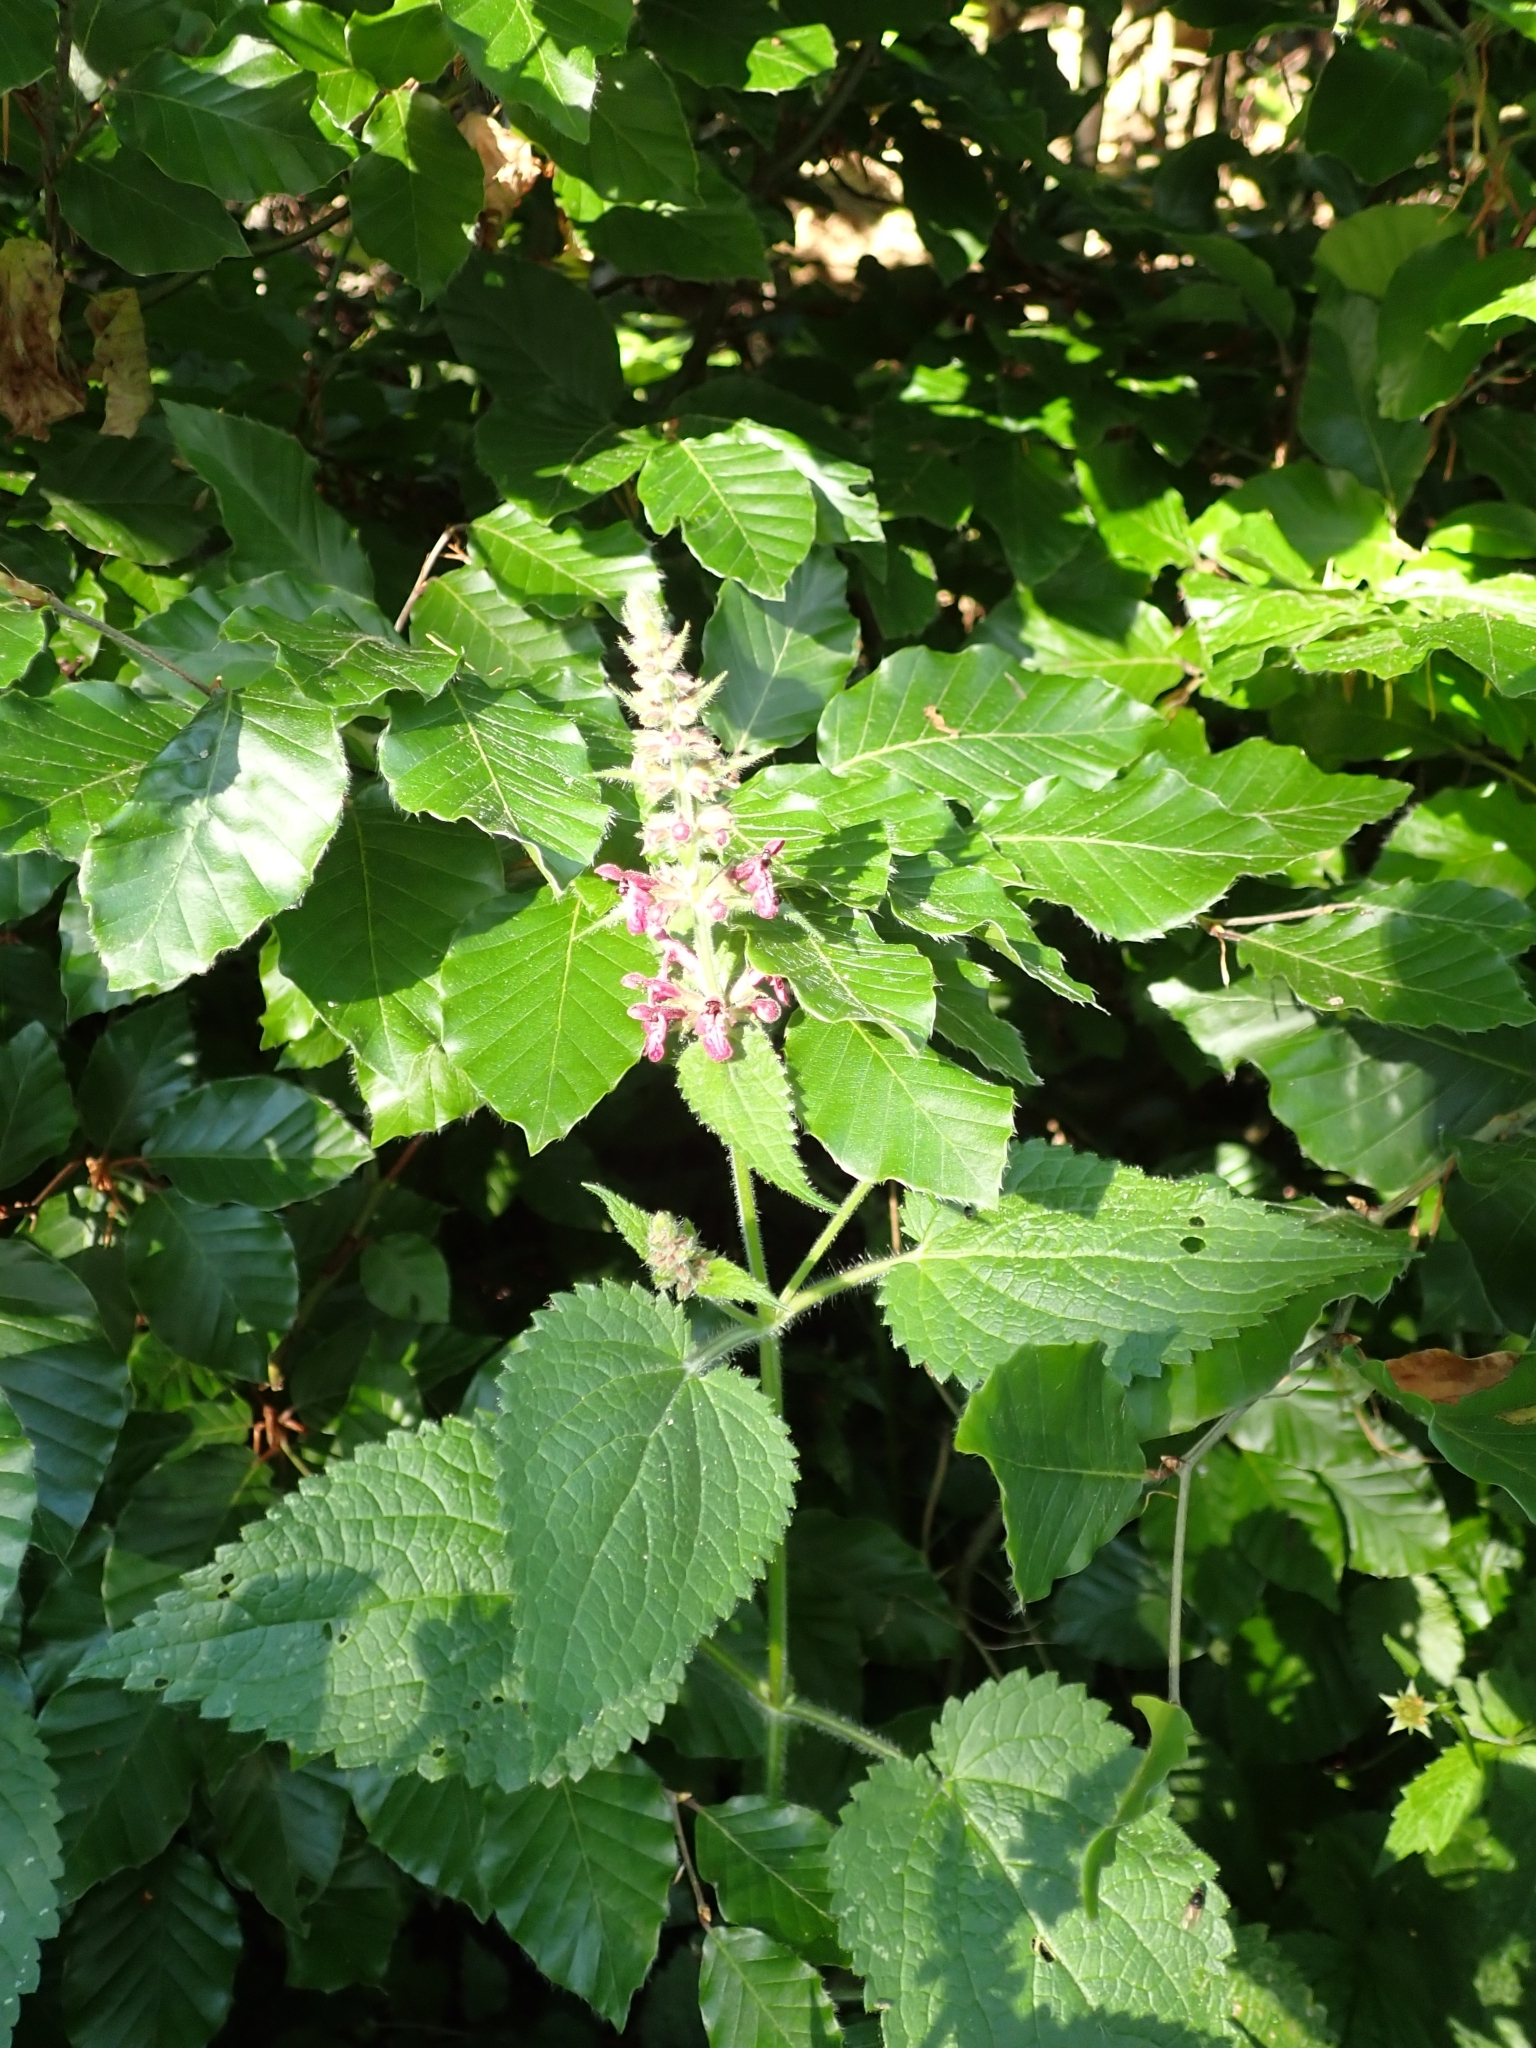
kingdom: Plantae
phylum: Tracheophyta
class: Magnoliopsida
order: Lamiales
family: Lamiaceae
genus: Stachys
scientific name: Stachys sylvatica
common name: Hedge woundwort
